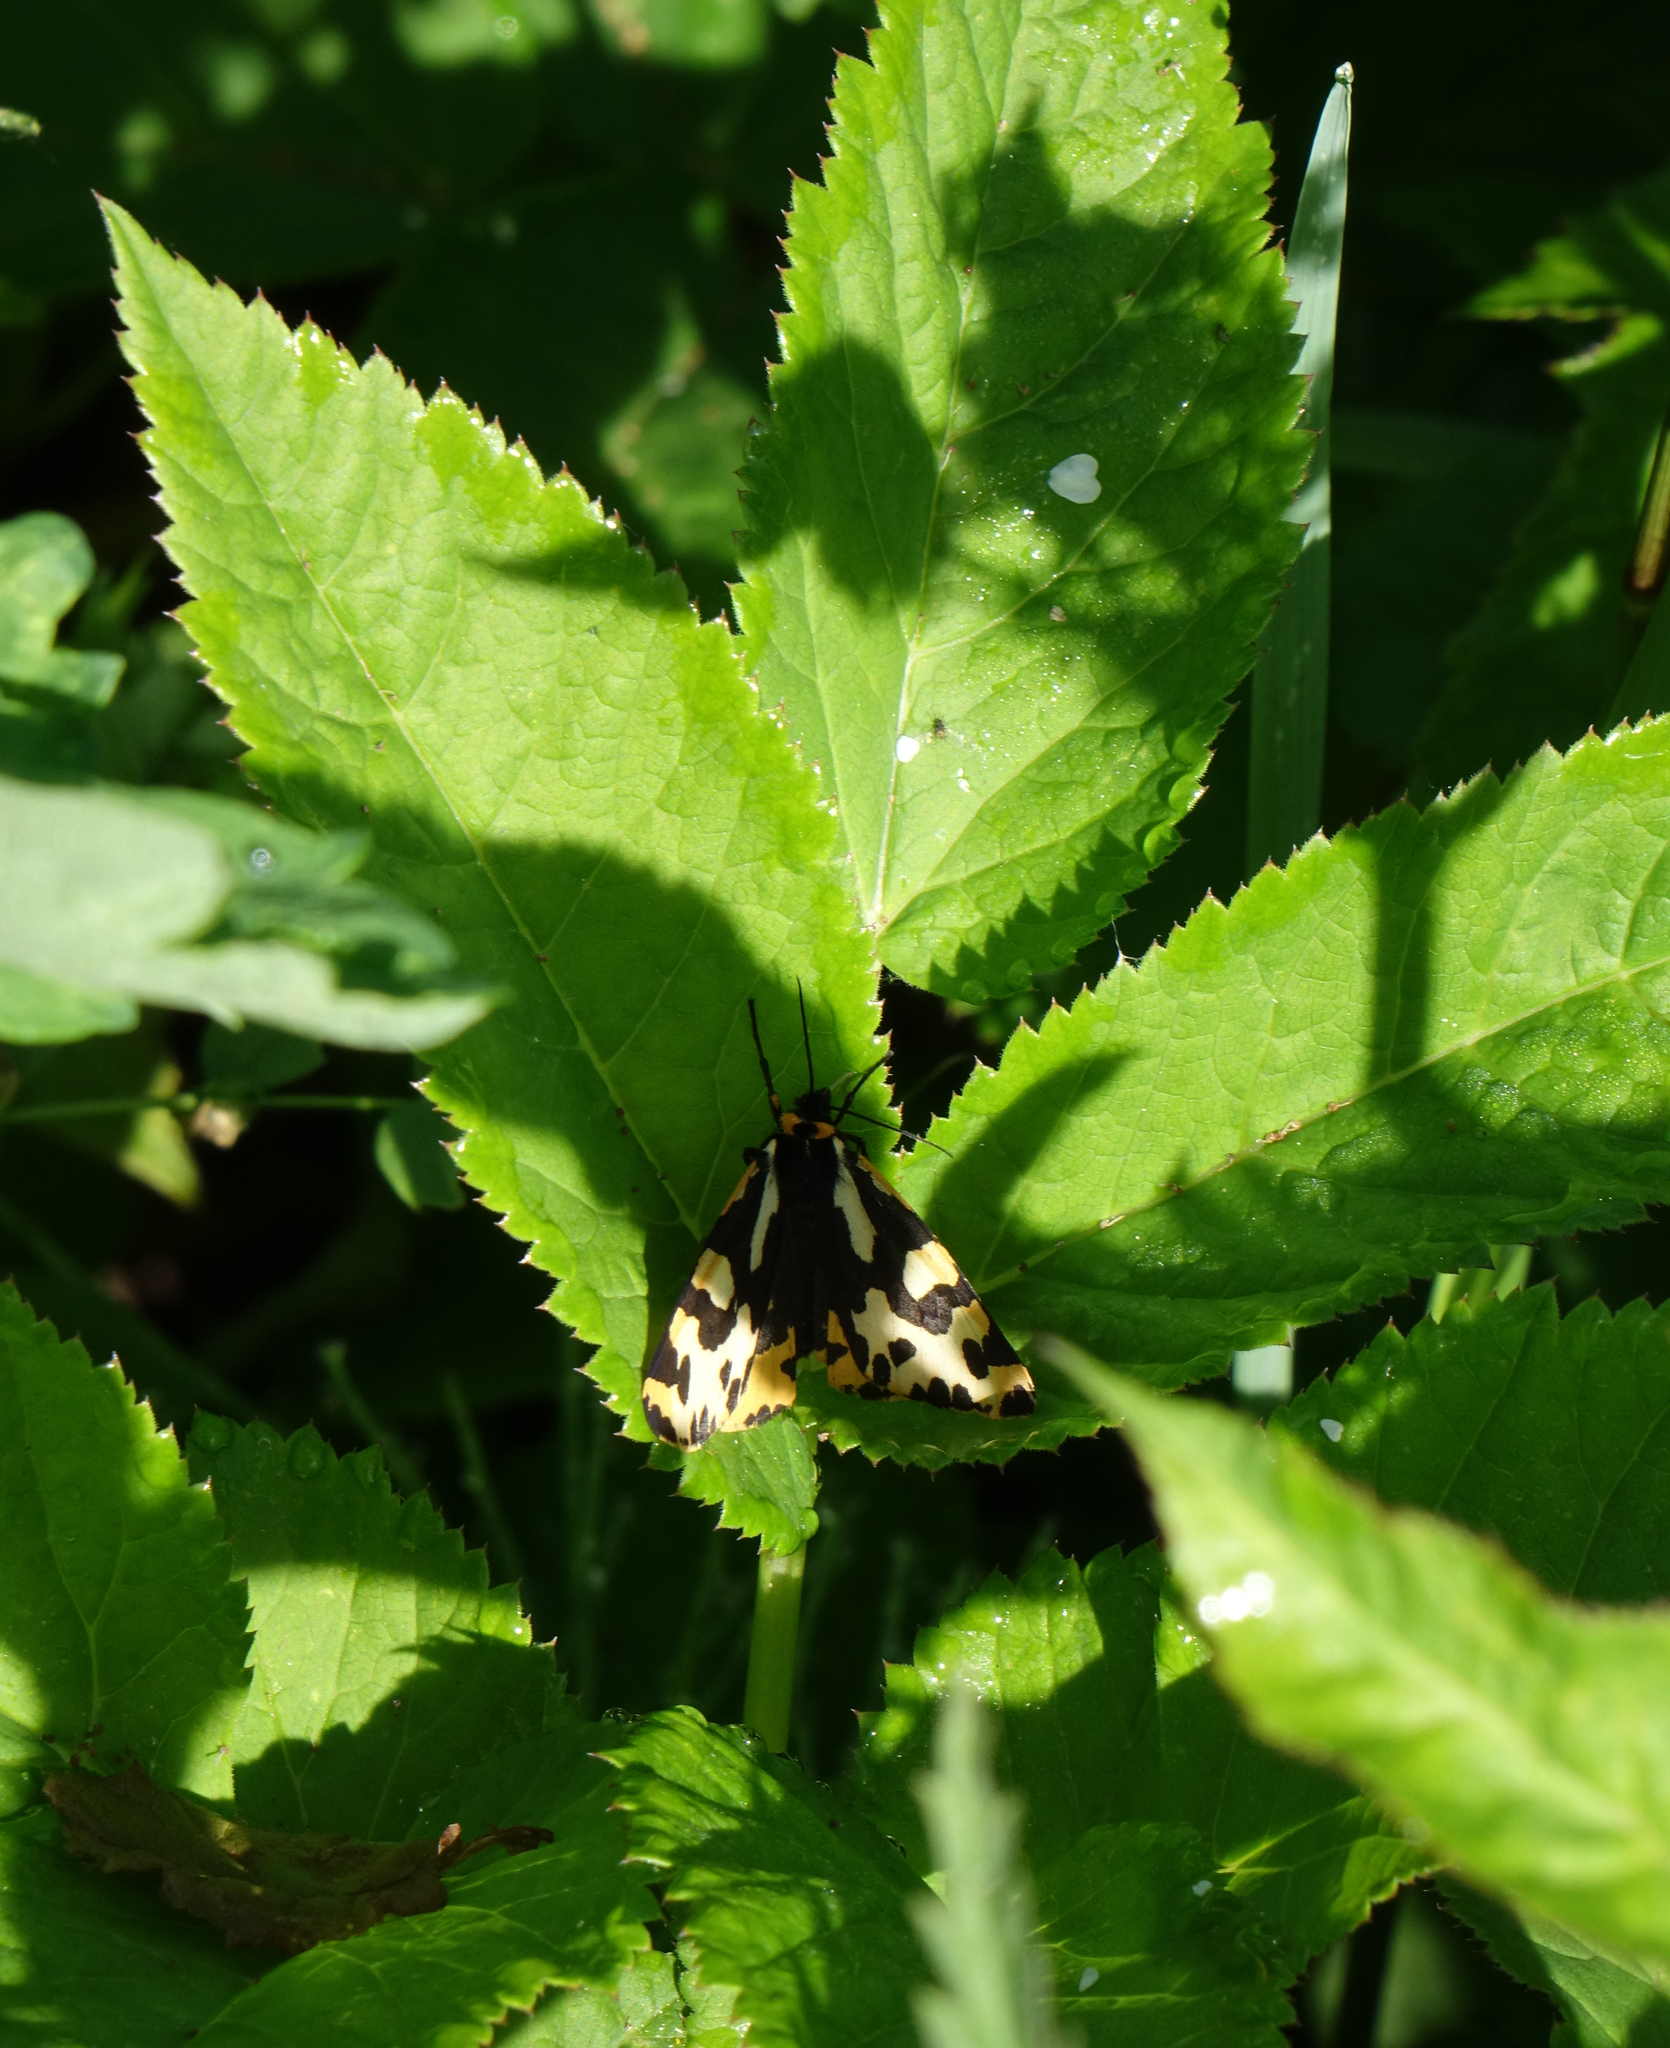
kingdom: Animalia
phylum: Arthropoda
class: Insecta
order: Lepidoptera
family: Erebidae
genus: Parasemia
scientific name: Parasemia plantaginis
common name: Wood tiger
